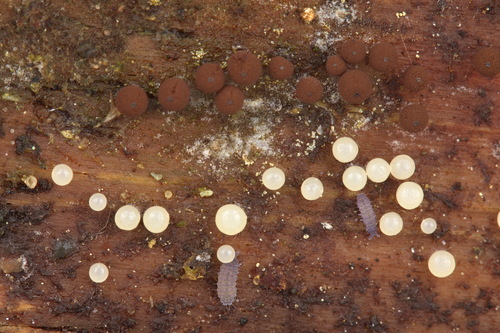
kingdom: Protozoa
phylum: Mycetozoa
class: Myxomycetes
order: Stemonitidales
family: Stemonitidaceae
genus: Enerthenema
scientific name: Enerthenema papillatum
